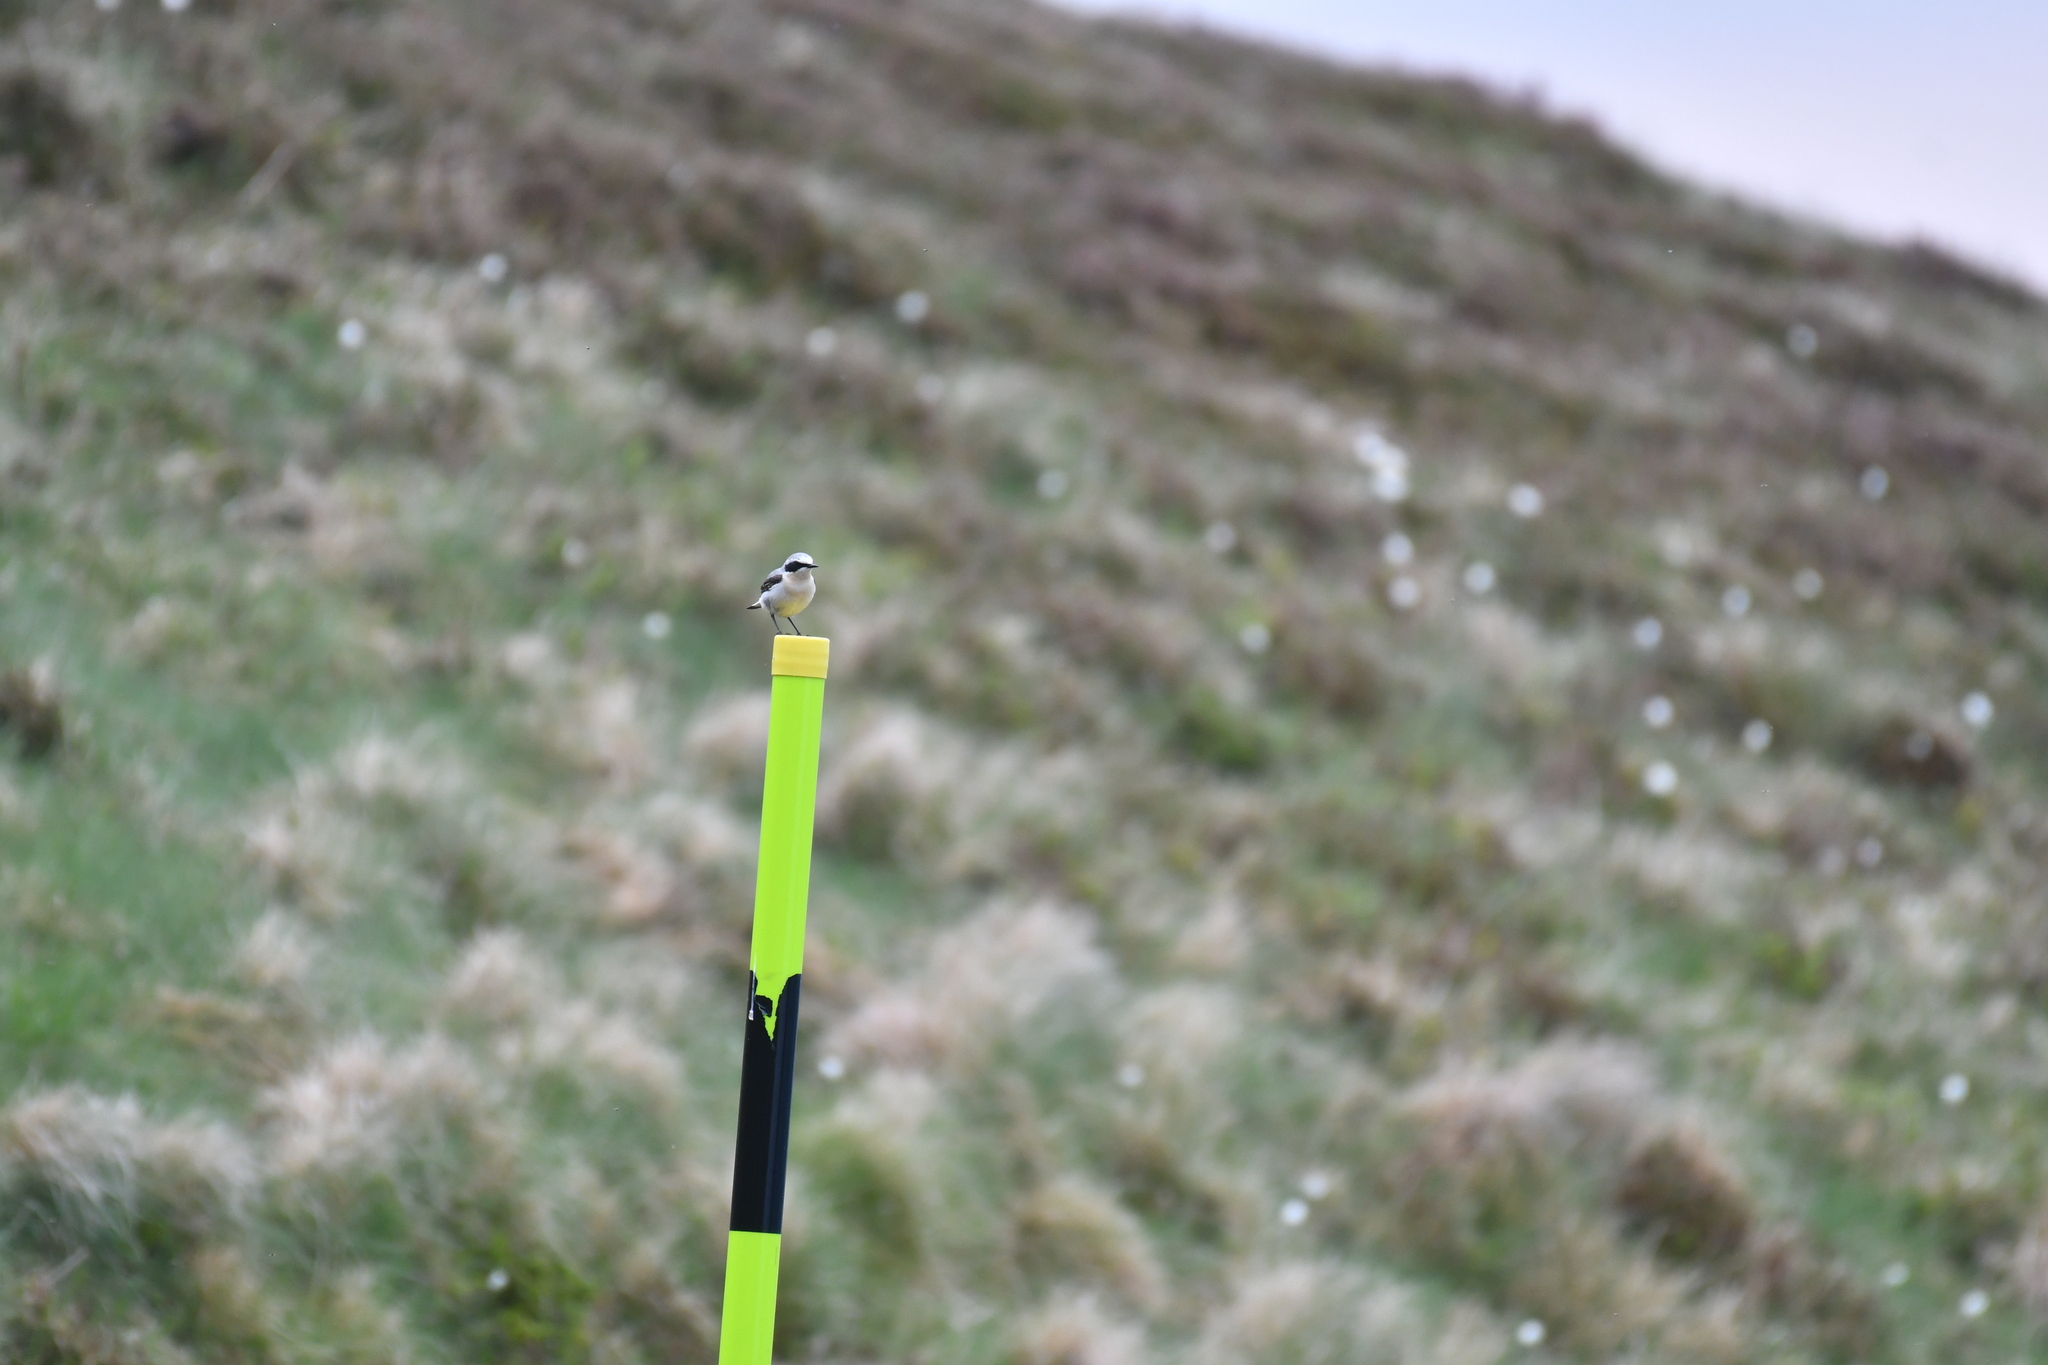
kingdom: Animalia
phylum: Chordata
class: Aves
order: Passeriformes
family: Muscicapidae
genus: Oenanthe
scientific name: Oenanthe oenanthe
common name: Northern wheatear
